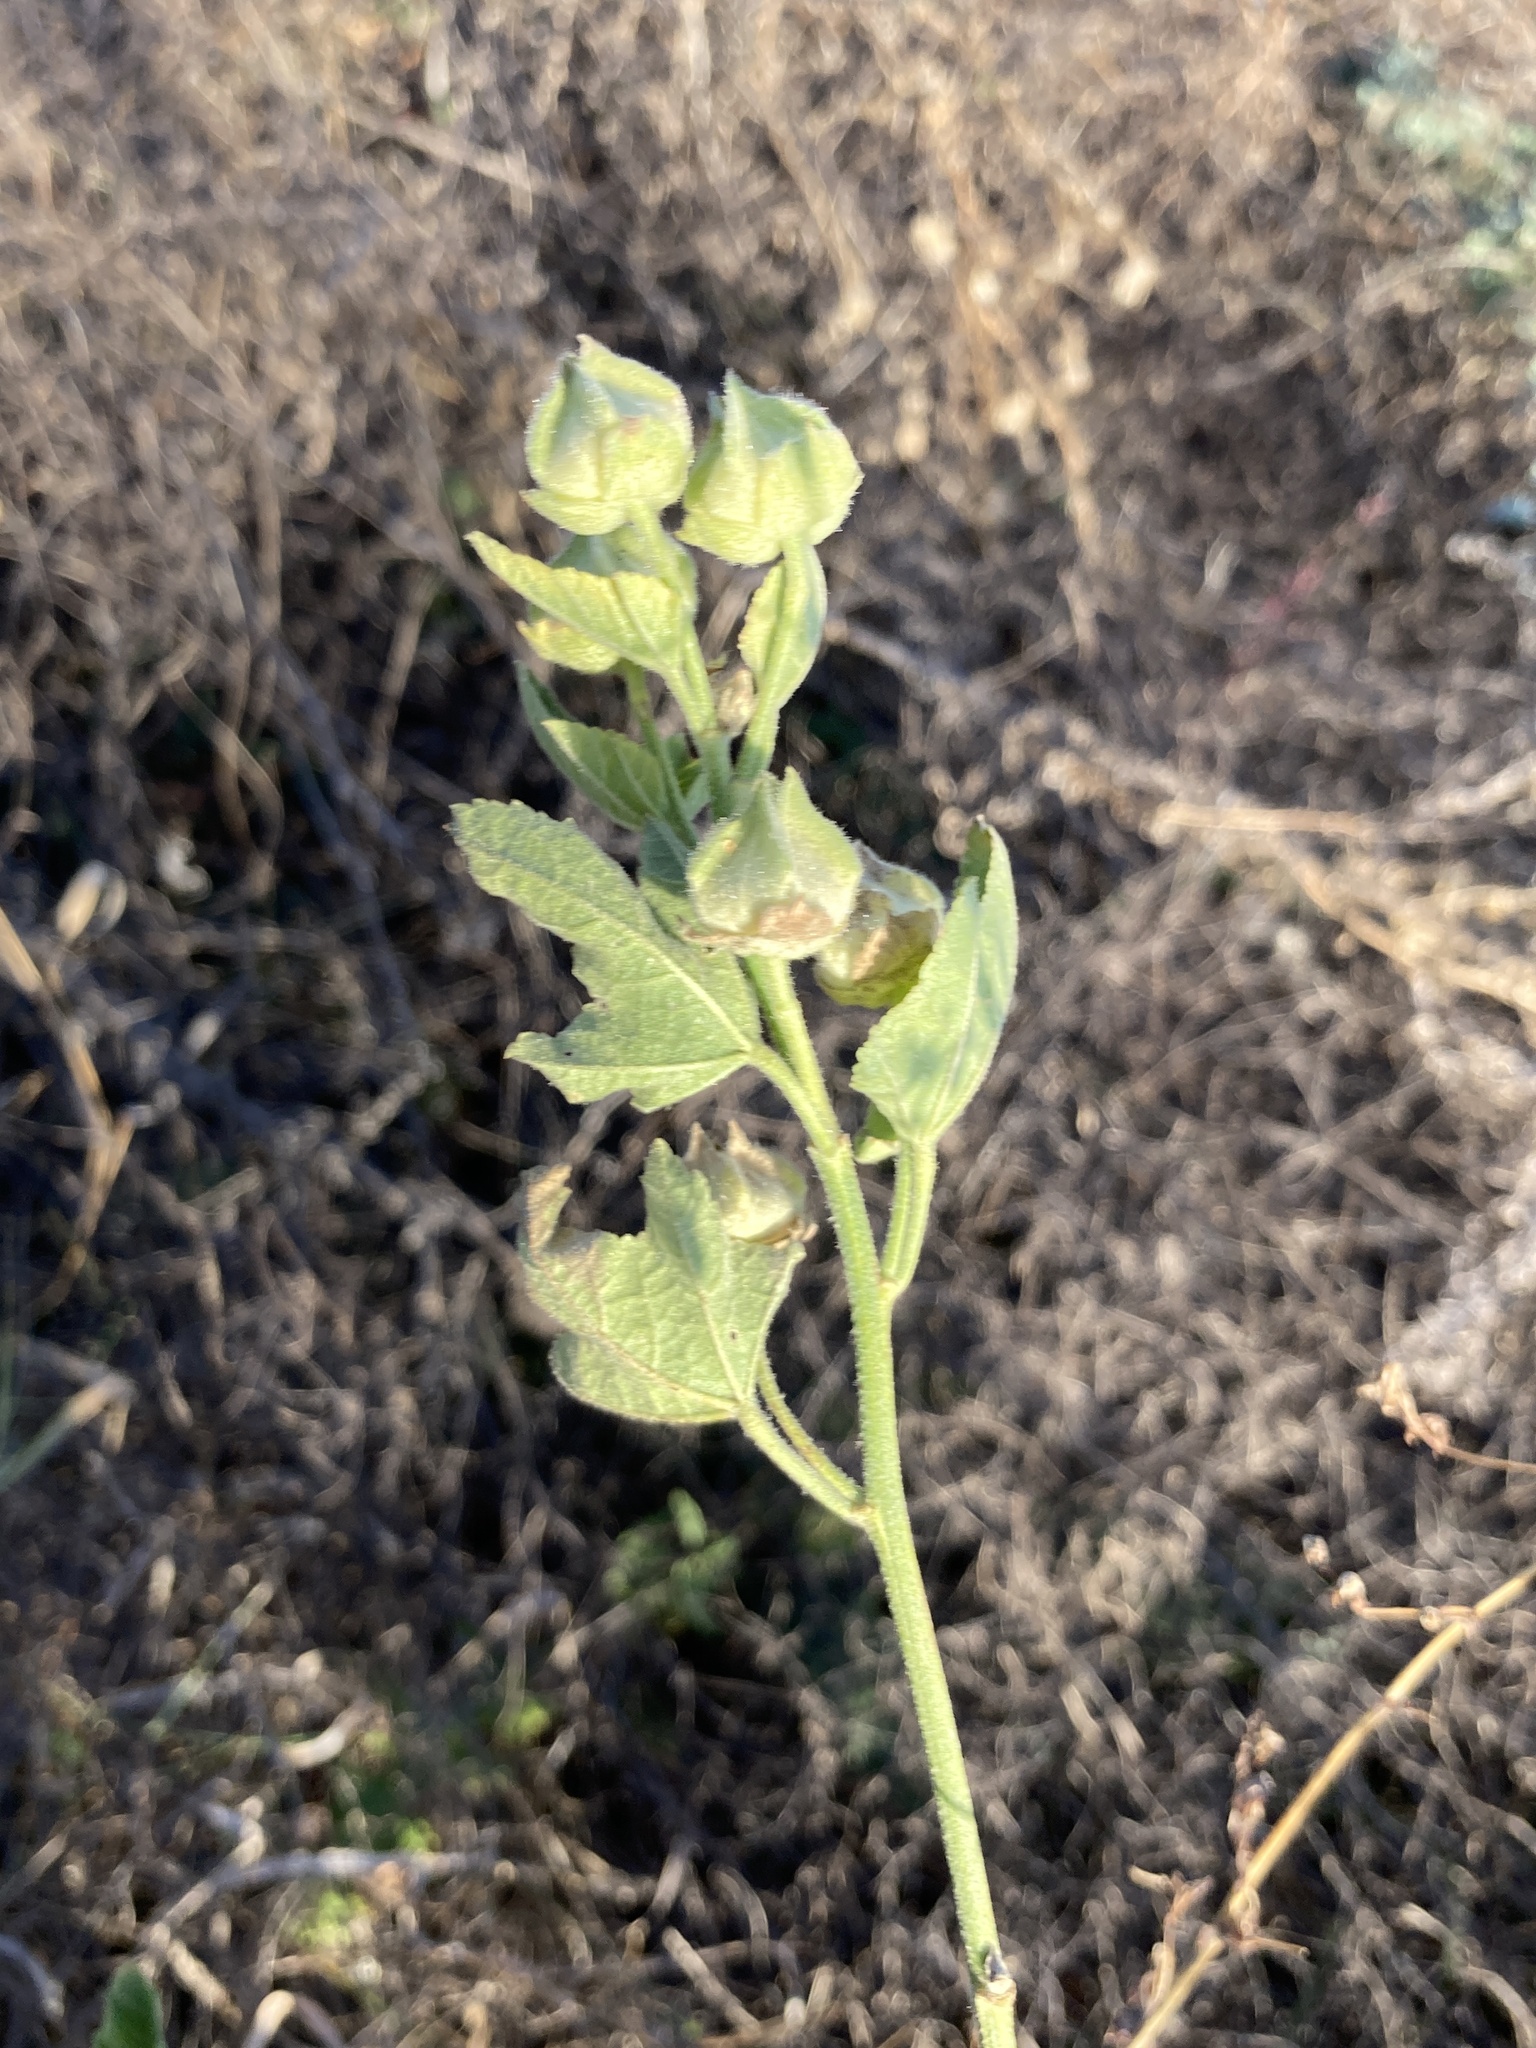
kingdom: Plantae
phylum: Tracheophyta
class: Magnoliopsida
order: Malvales
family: Malvaceae
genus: Malva
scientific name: Malva thuringiaca
